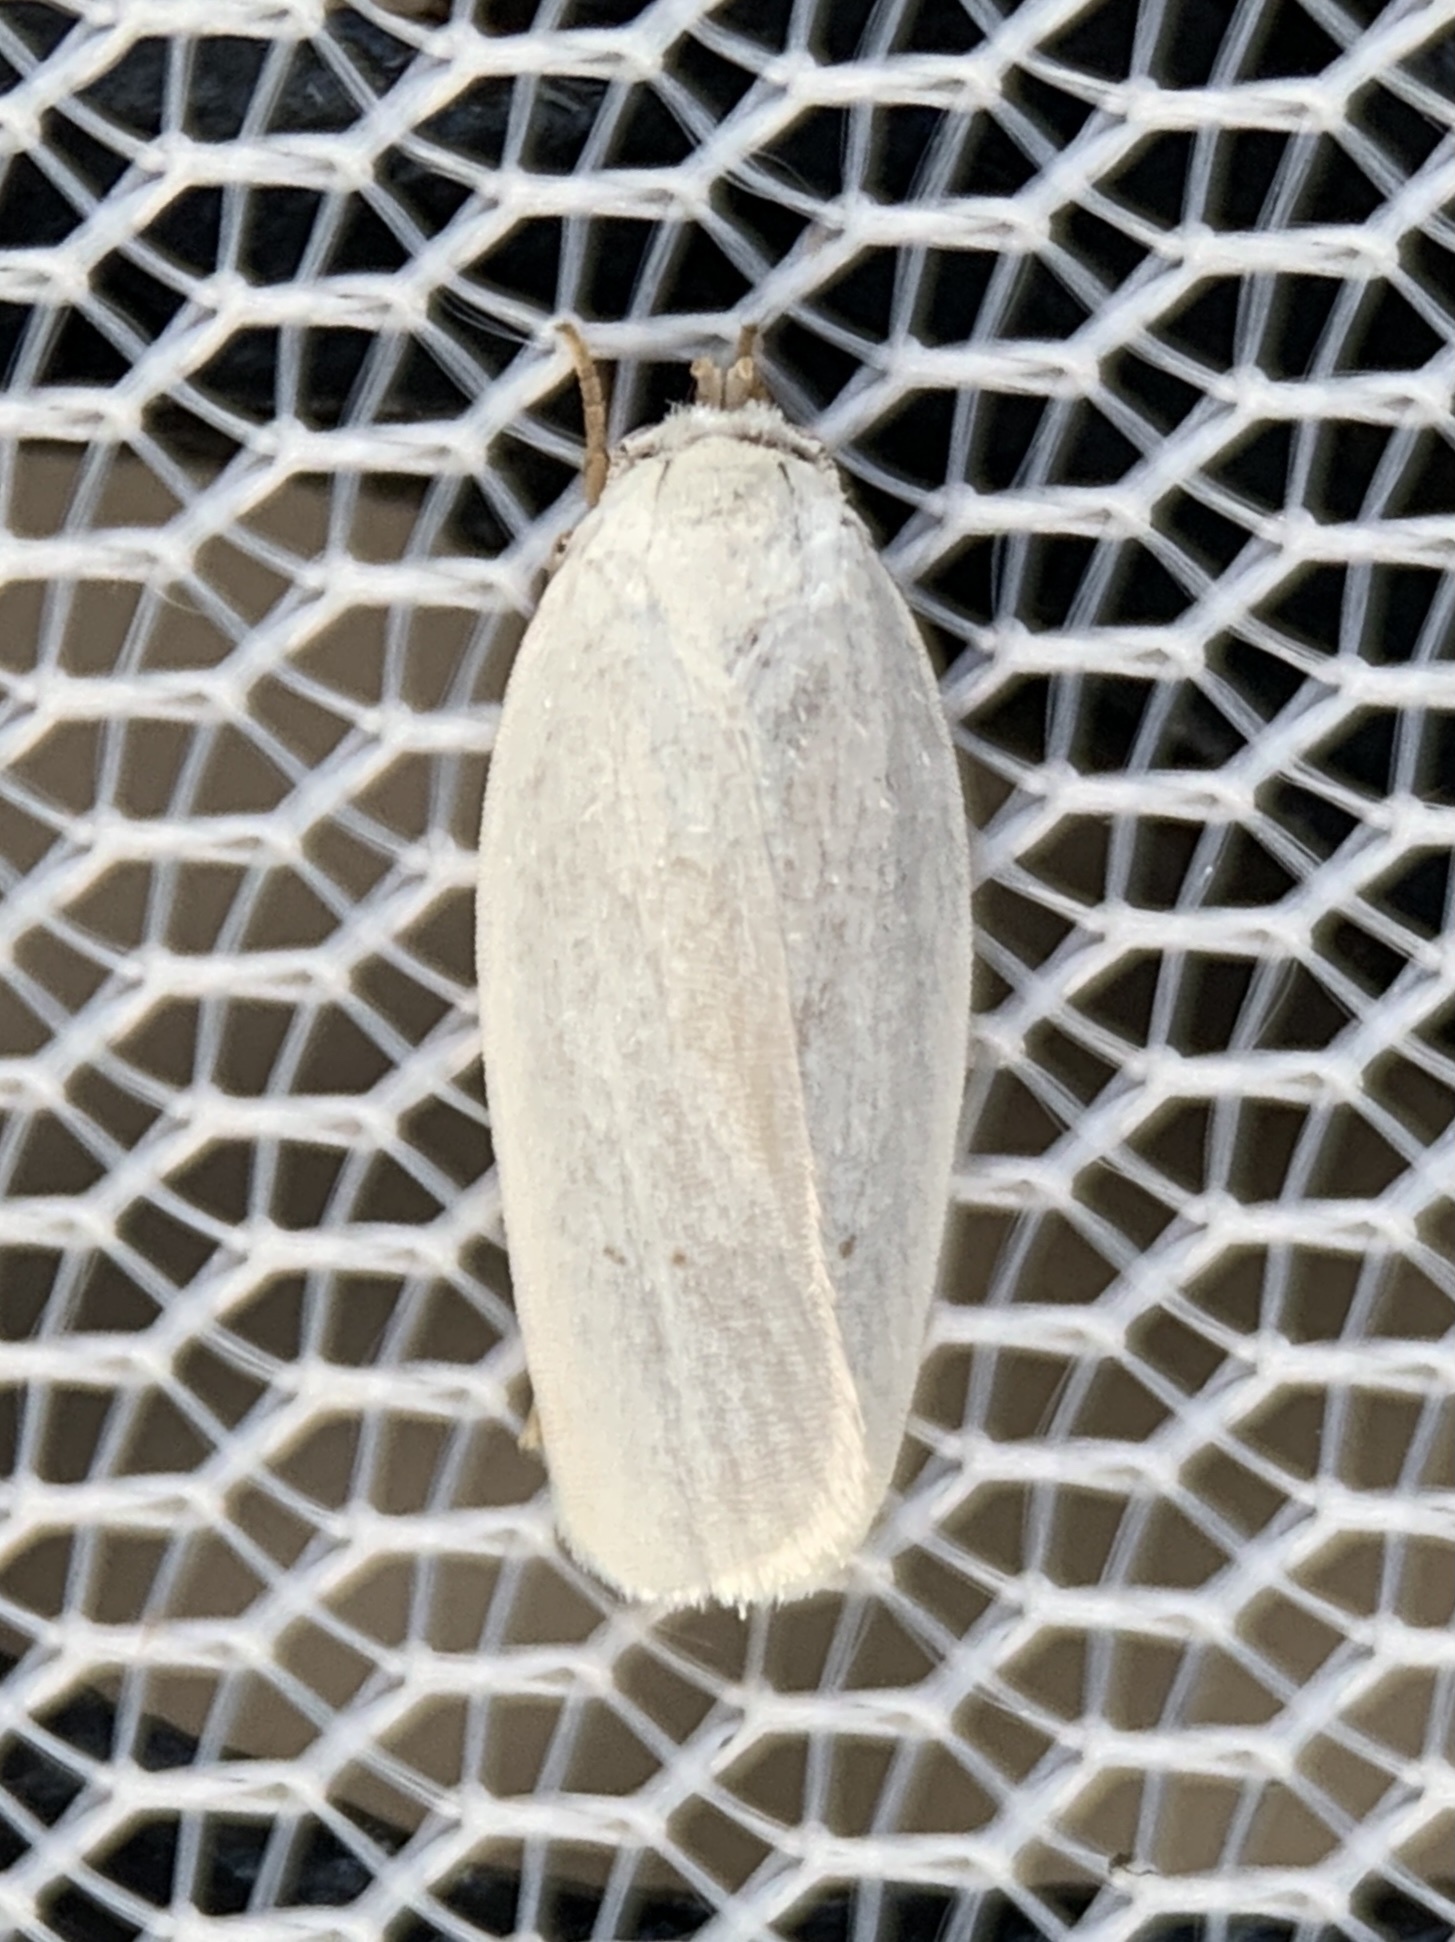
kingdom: Animalia
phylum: Arthropoda
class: Insecta
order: Lepidoptera
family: Depressariidae
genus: Antaeotricha
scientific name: Antaeotricha albulella
